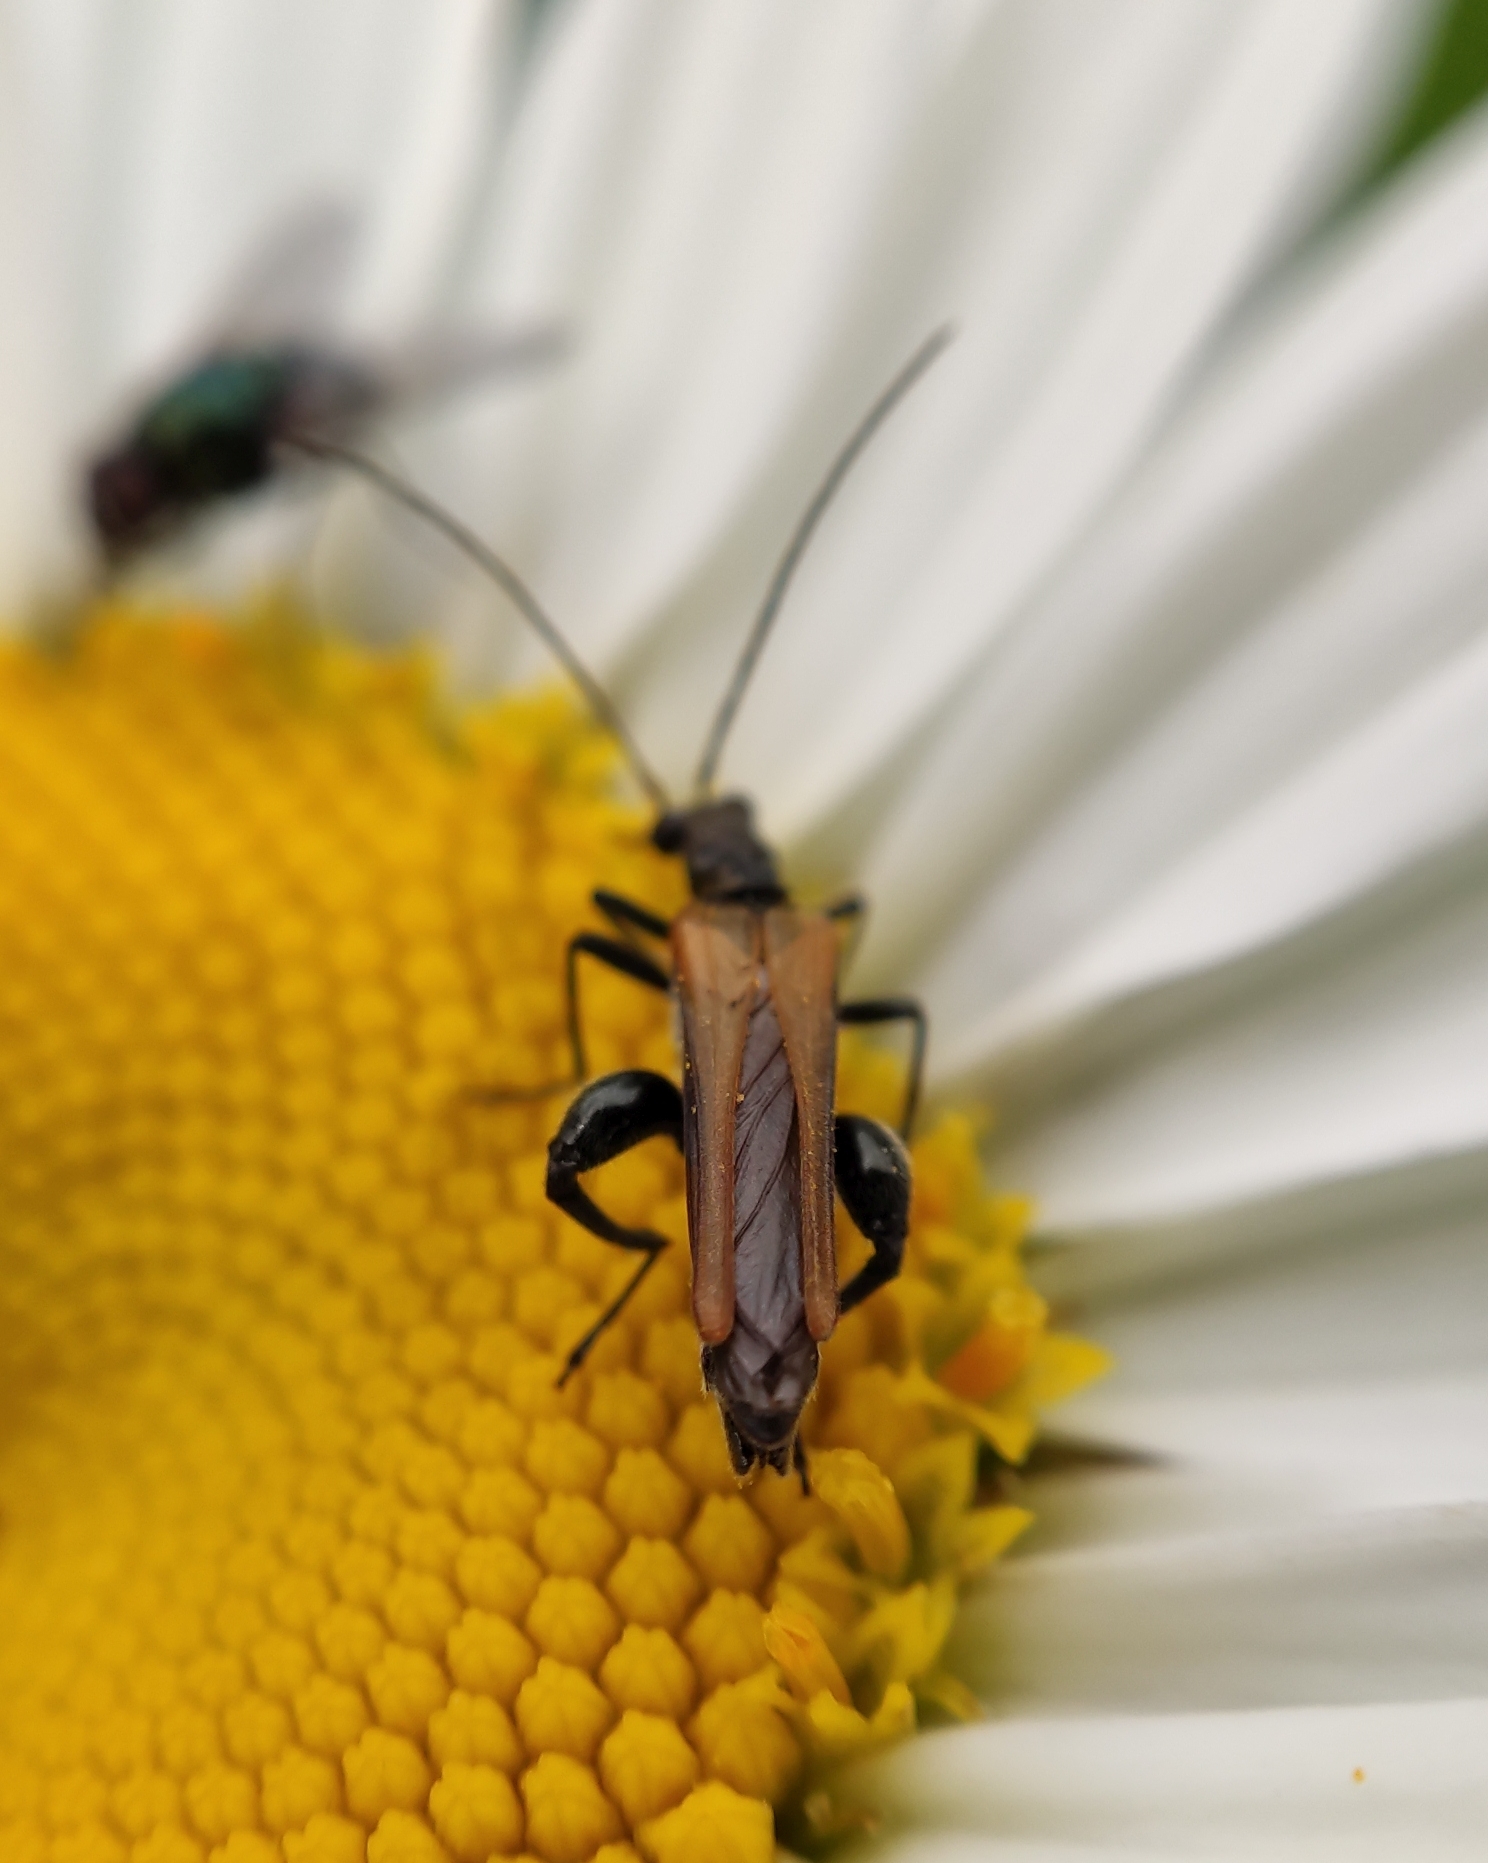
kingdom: Animalia
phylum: Arthropoda
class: Insecta
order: Coleoptera
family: Oedemeridae
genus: Oedemera
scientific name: Oedemera femorata
